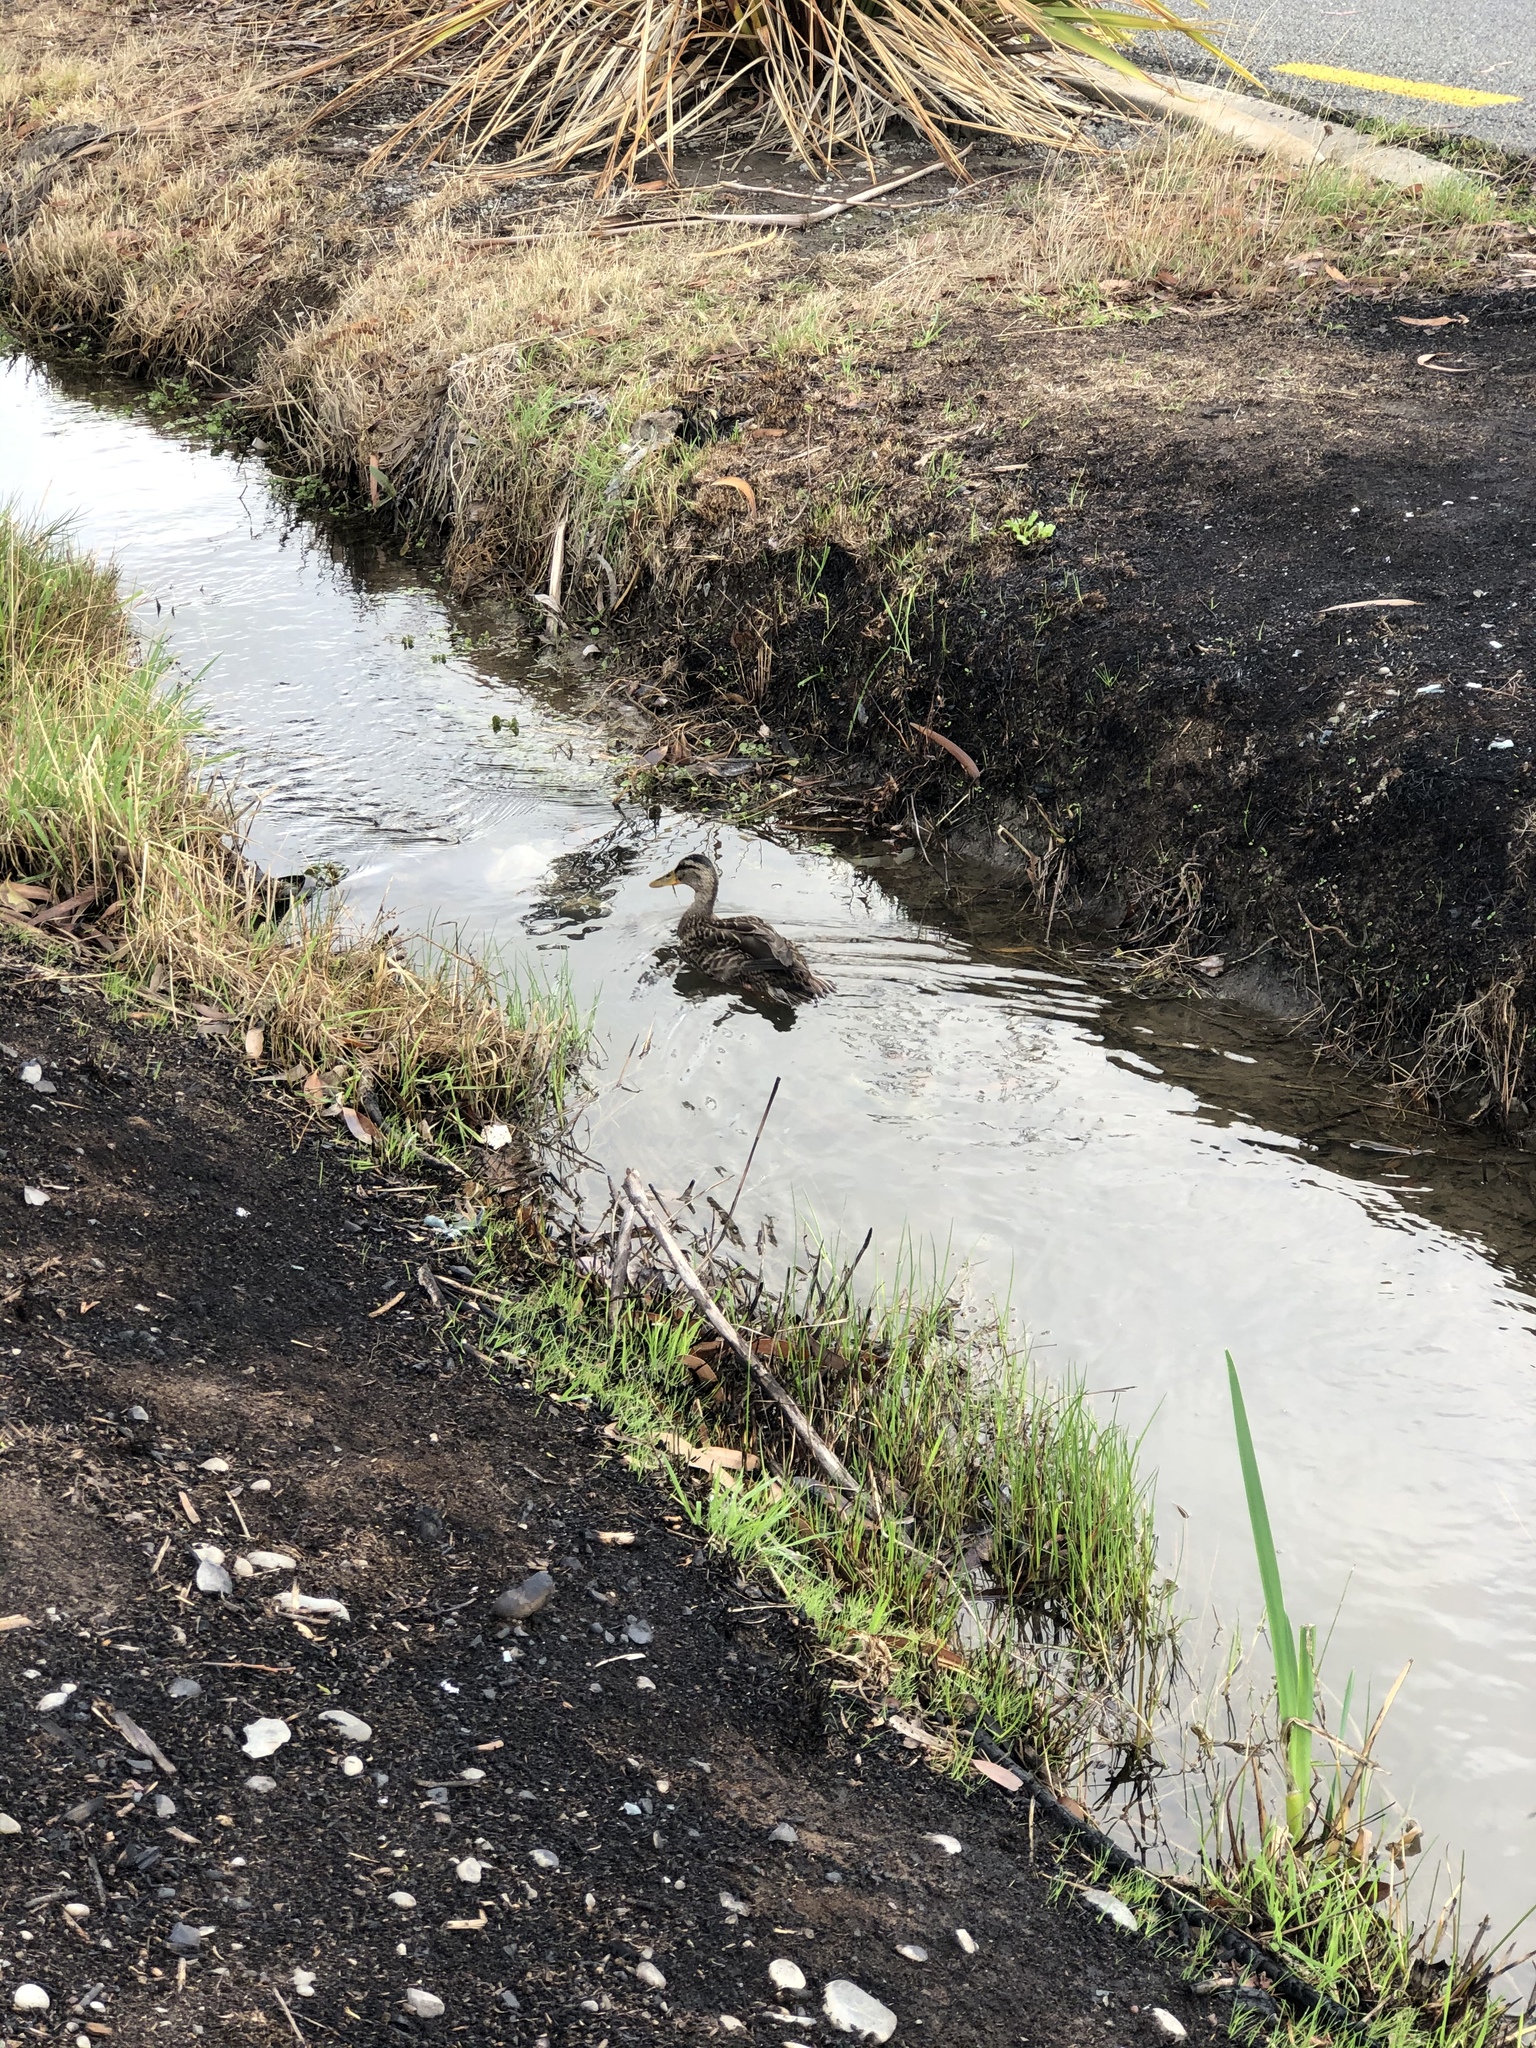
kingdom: Animalia
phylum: Chordata
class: Aves
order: Anseriformes
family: Anatidae
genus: Anas
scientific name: Anas
